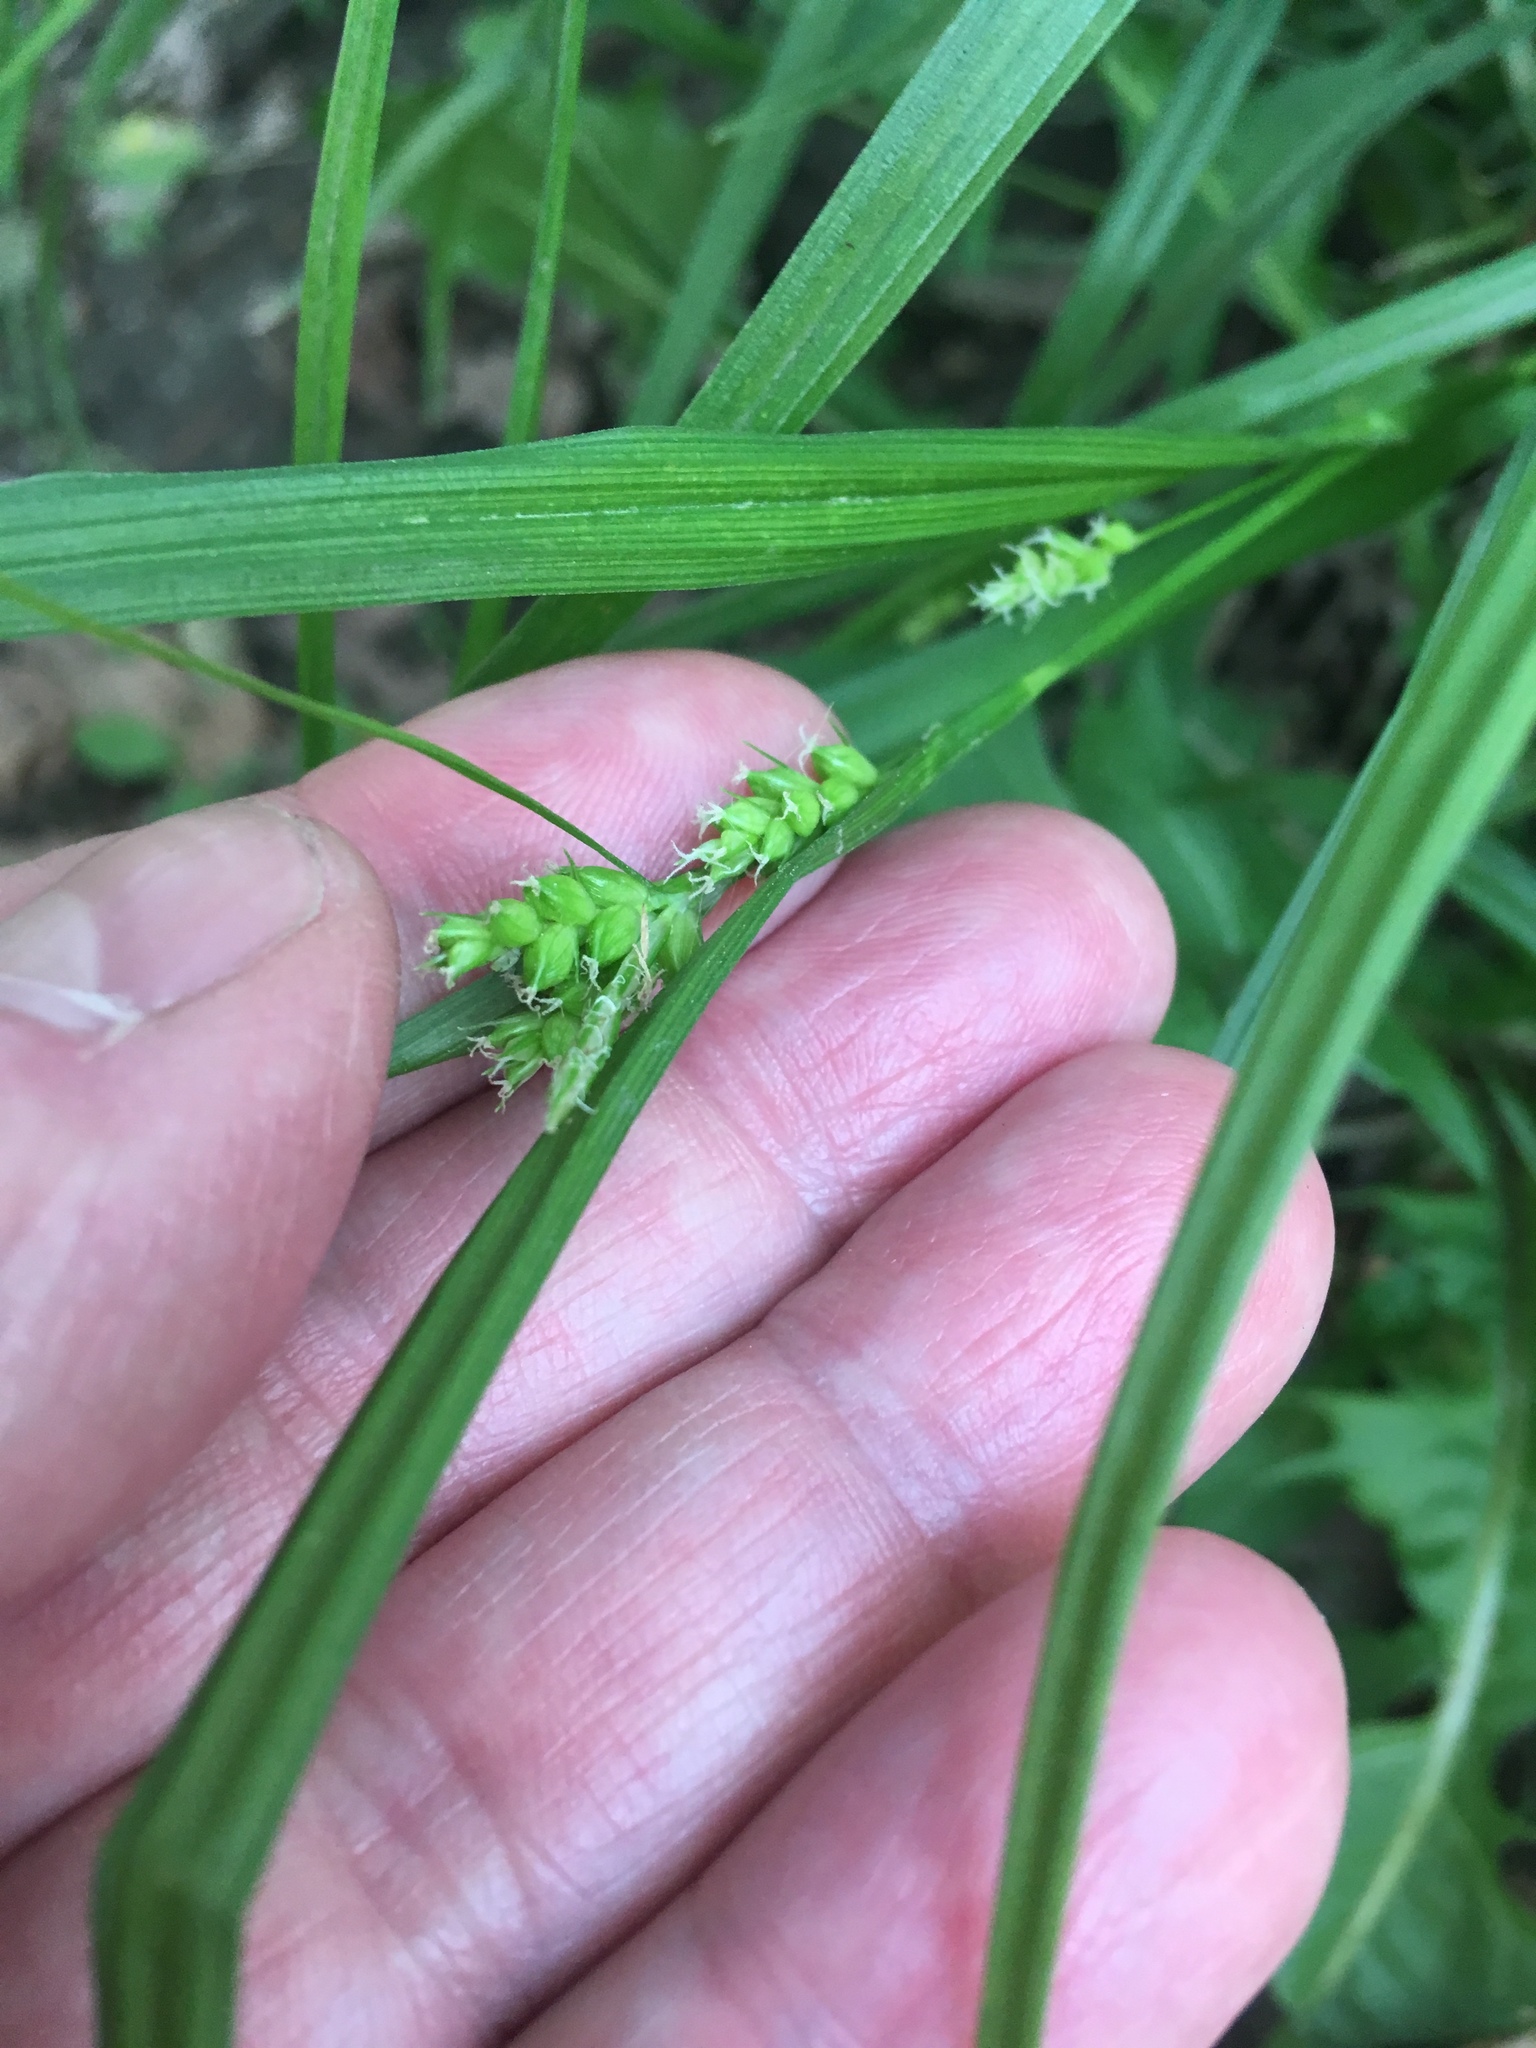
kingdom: Plantae
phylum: Tracheophyta
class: Liliopsida
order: Poales
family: Cyperaceae
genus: Carex
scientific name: Carex blanda
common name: Bland sedge
